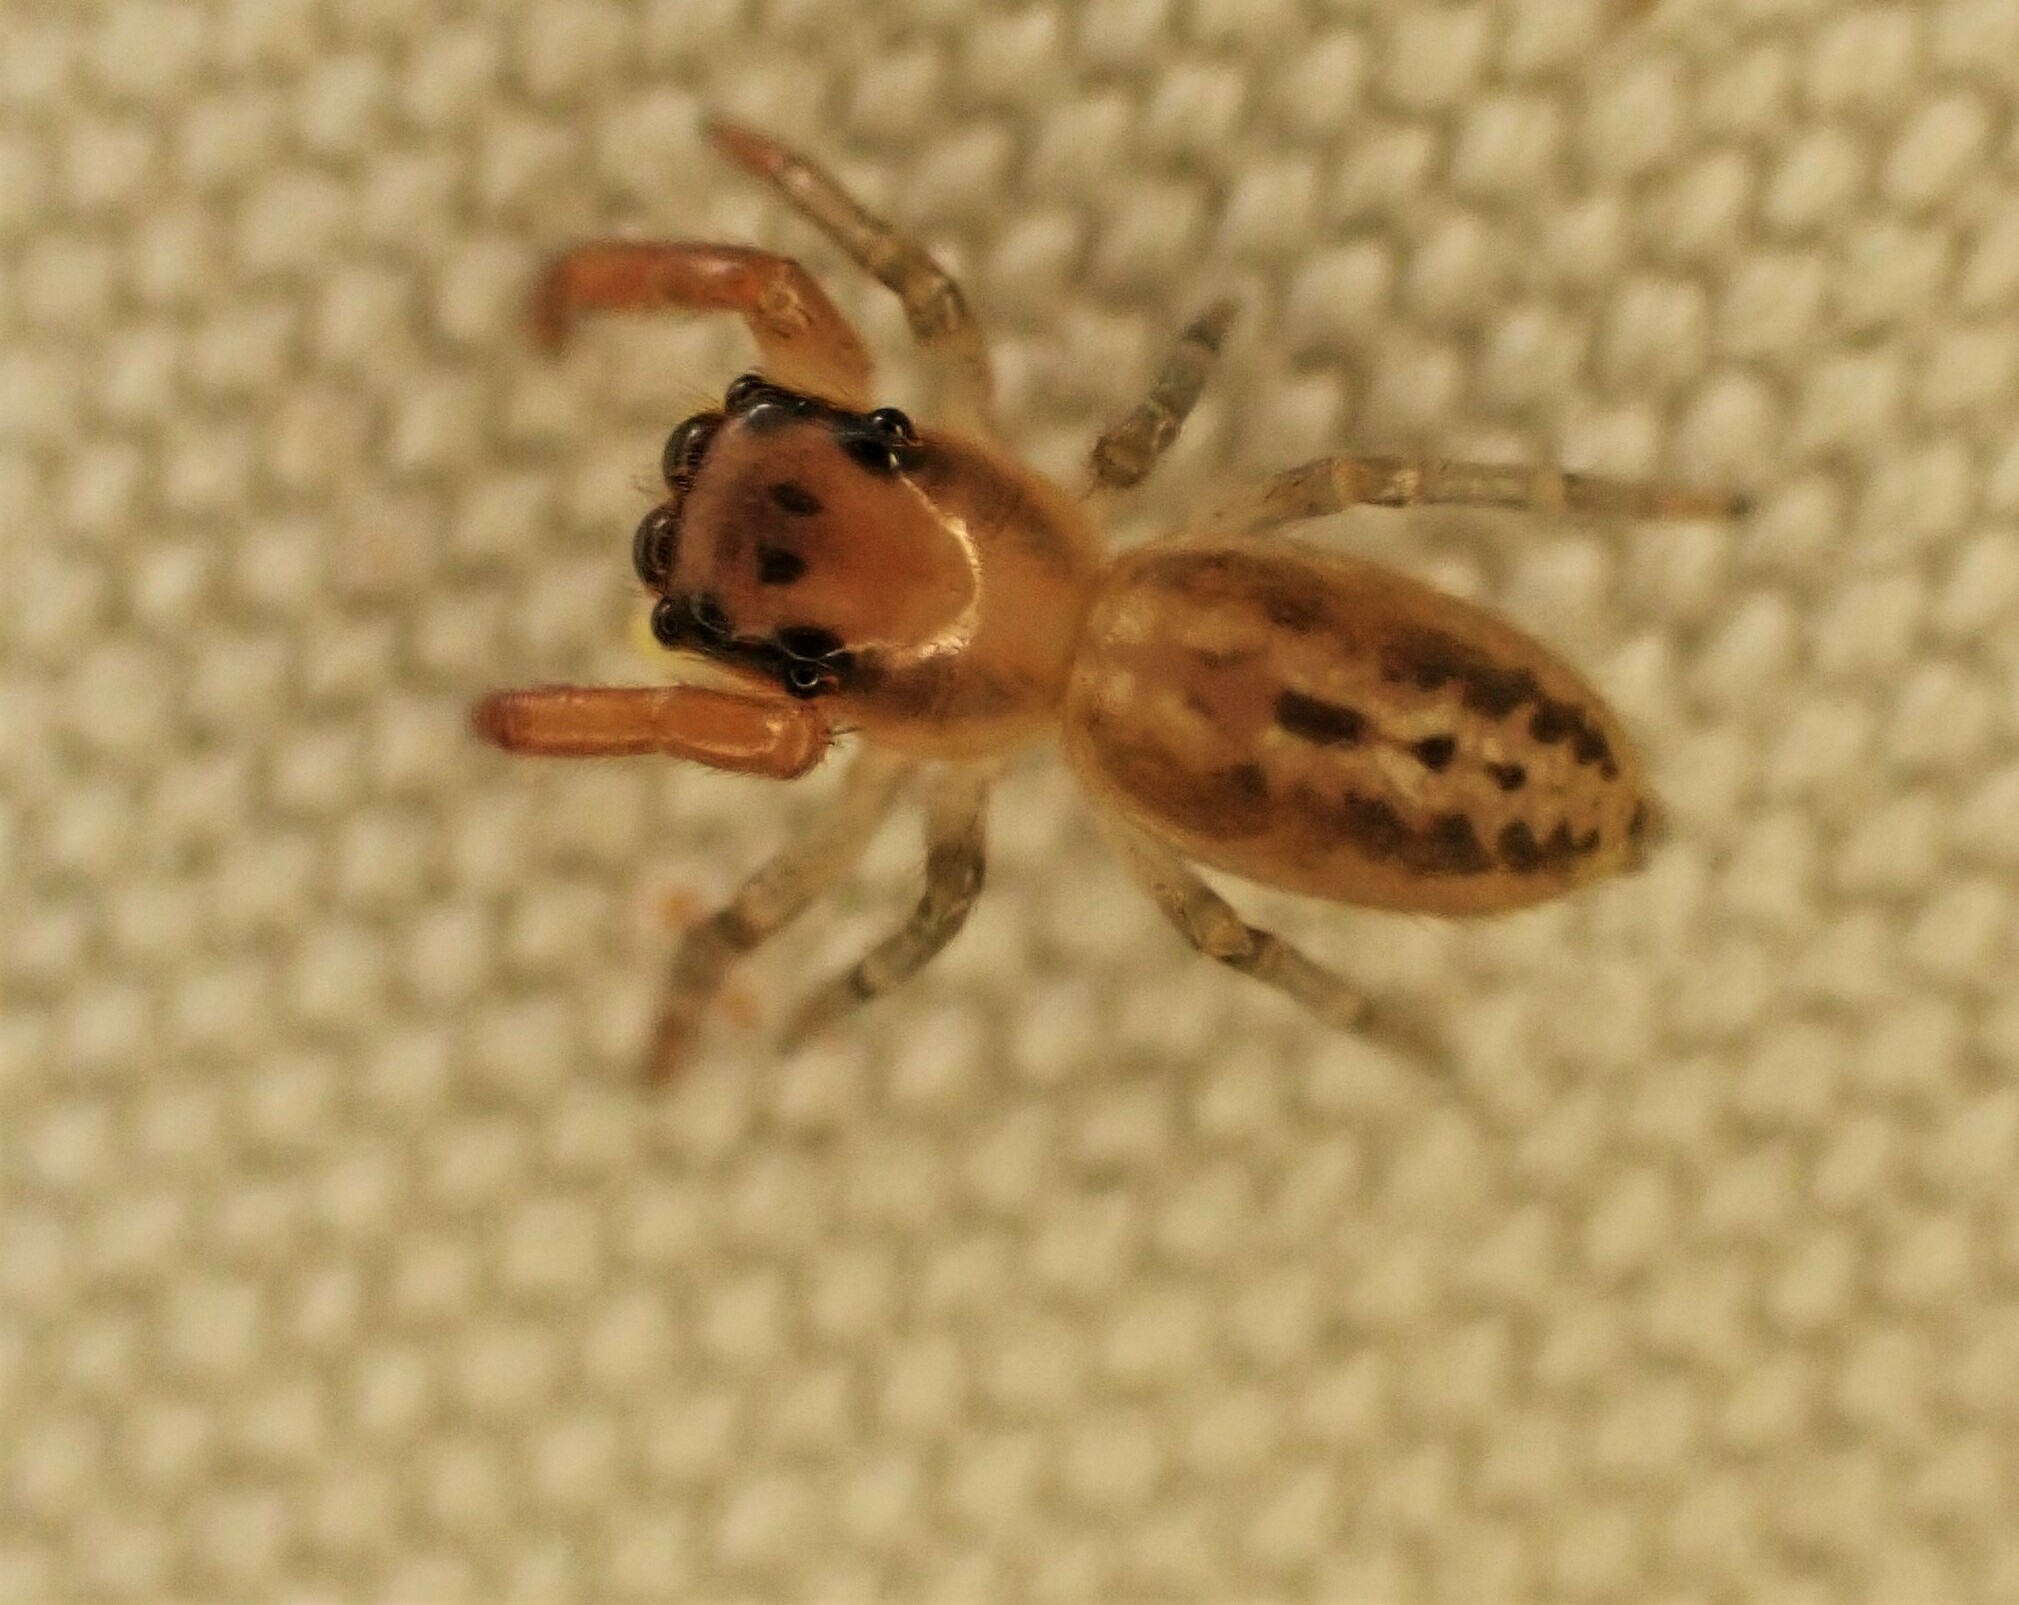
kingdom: Animalia
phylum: Arthropoda
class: Arachnida
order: Araneae
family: Salticidae
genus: Trite
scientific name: Trite mustilina
